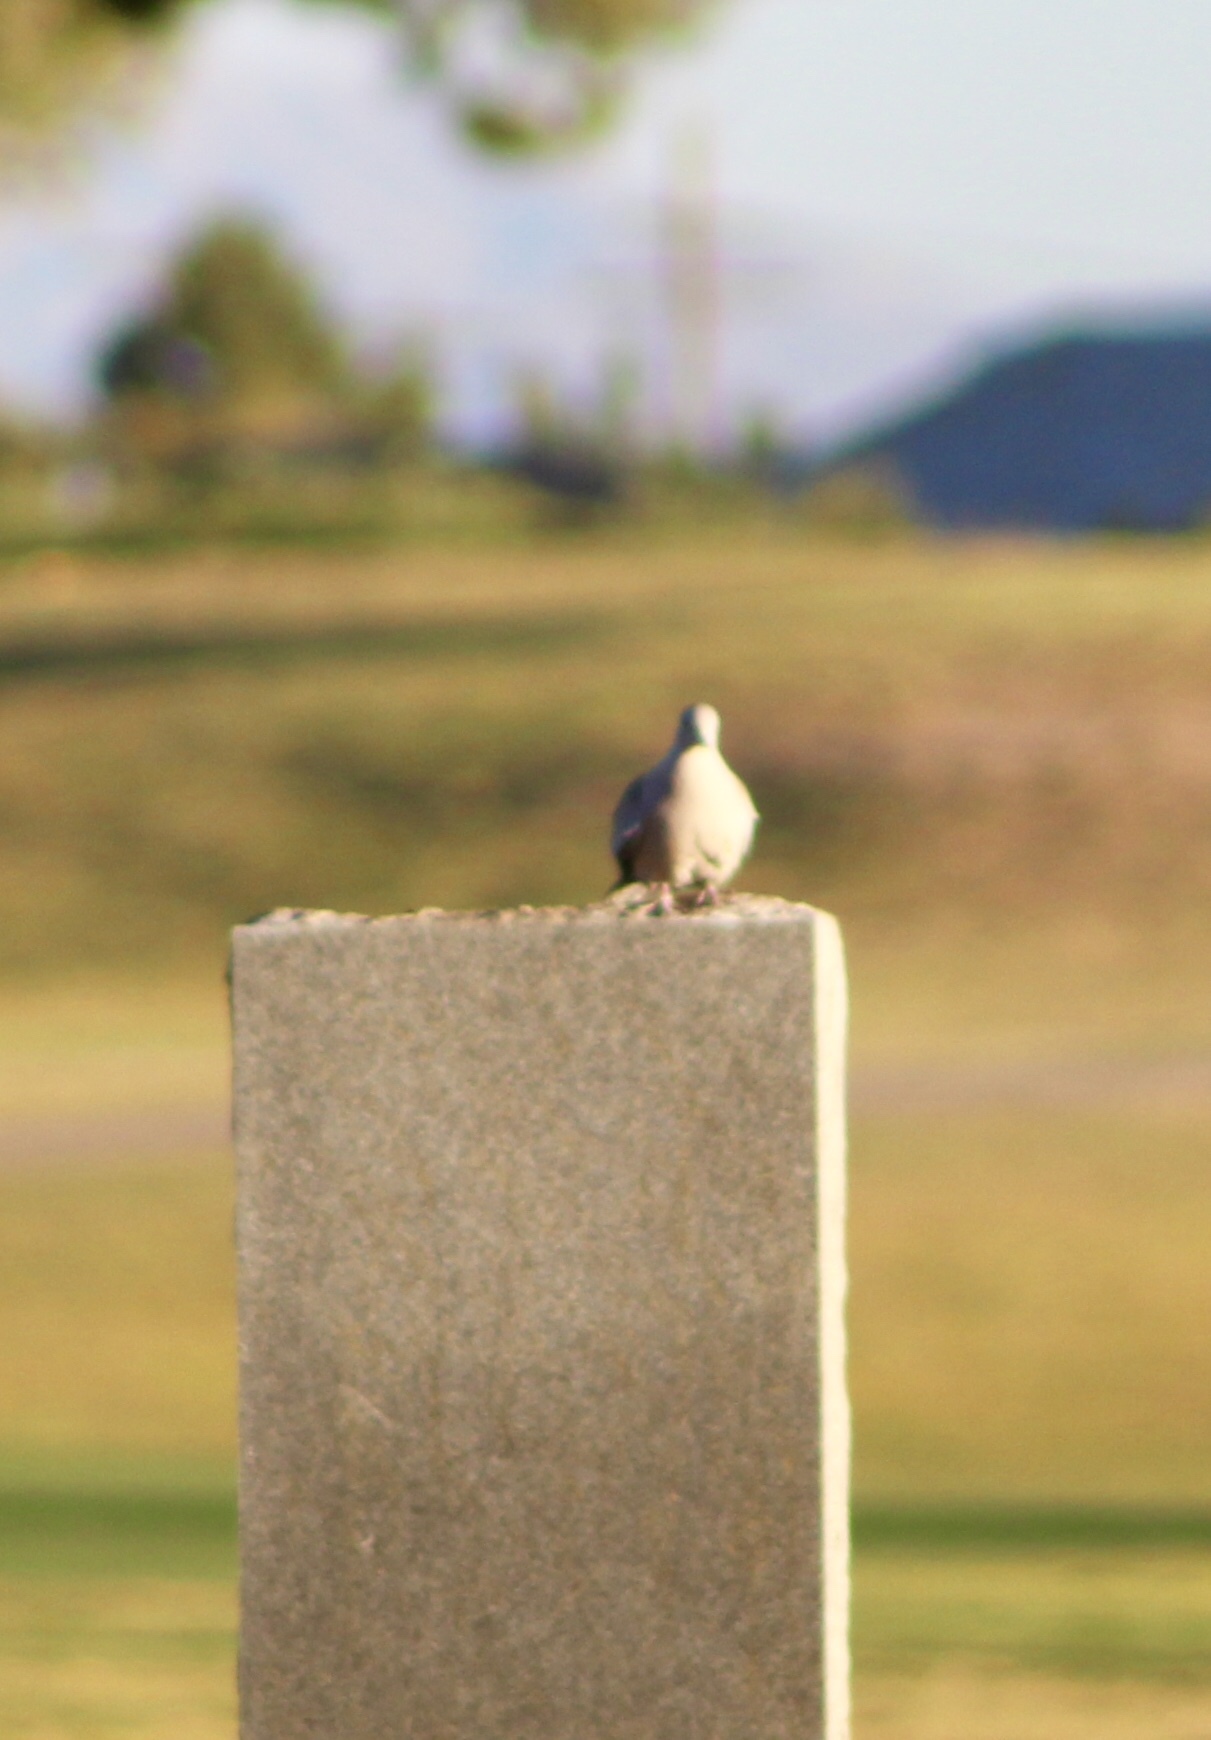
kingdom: Animalia
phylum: Chordata
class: Aves
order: Columbiformes
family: Columbidae
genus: Streptopelia
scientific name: Streptopelia decaocto
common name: Eurasian collared dove
